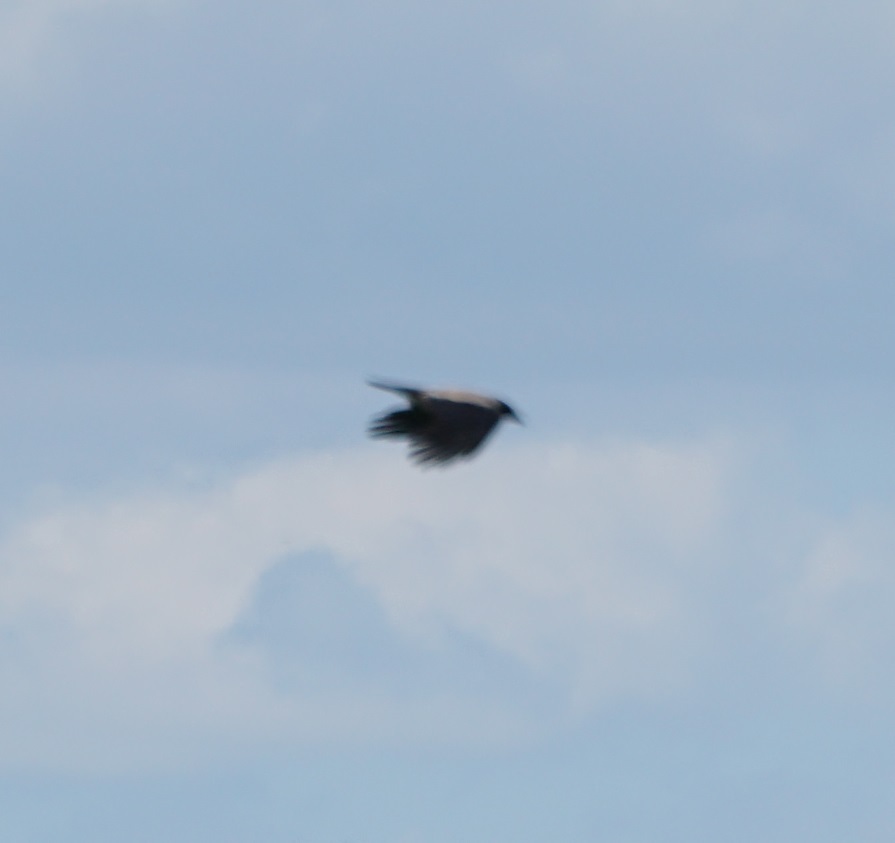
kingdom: Animalia
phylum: Chordata
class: Aves
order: Passeriformes
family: Corvidae
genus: Corvus
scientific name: Corvus cornix
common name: Hooded crow
